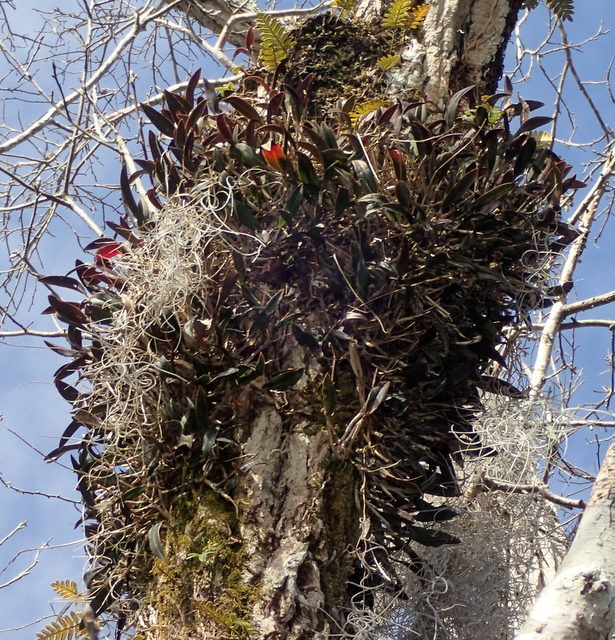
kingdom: Plantae
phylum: Tracheophyta
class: Liliopsida
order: Asparagales
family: Orchidaceae
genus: Epidendrum
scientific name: Epidendrum conopseum
